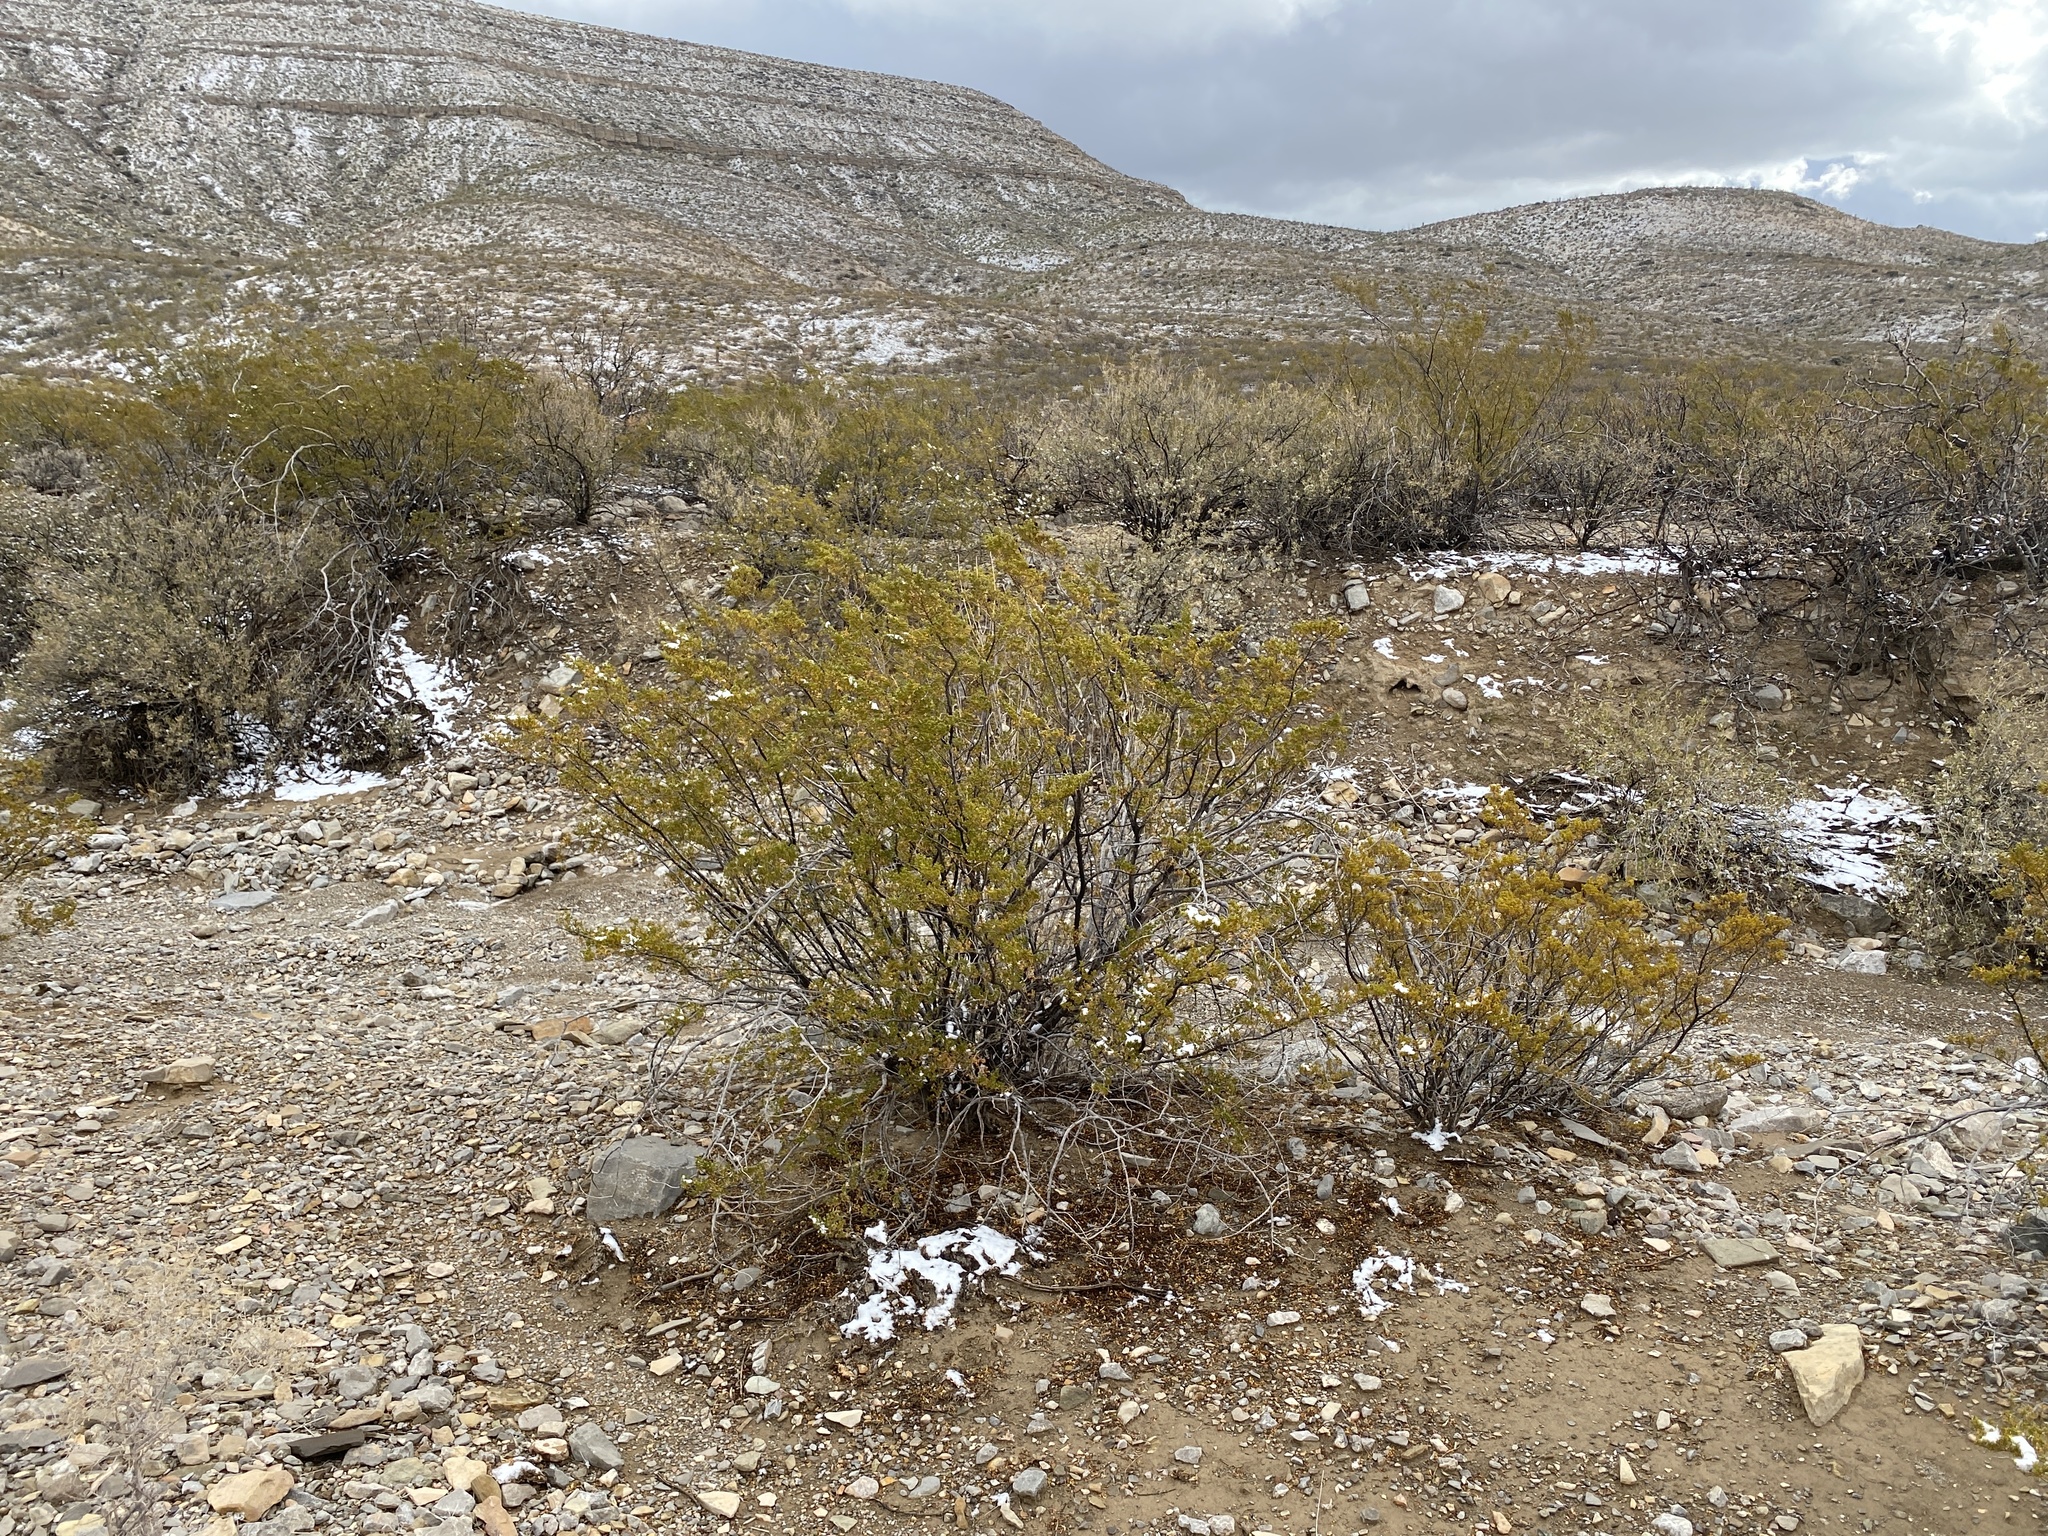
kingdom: Plantae
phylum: Tracheophyta
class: Magnoliopsida
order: Zygophyllales
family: Zygophyllaceae
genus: Larrea
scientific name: Larrea tridentata
